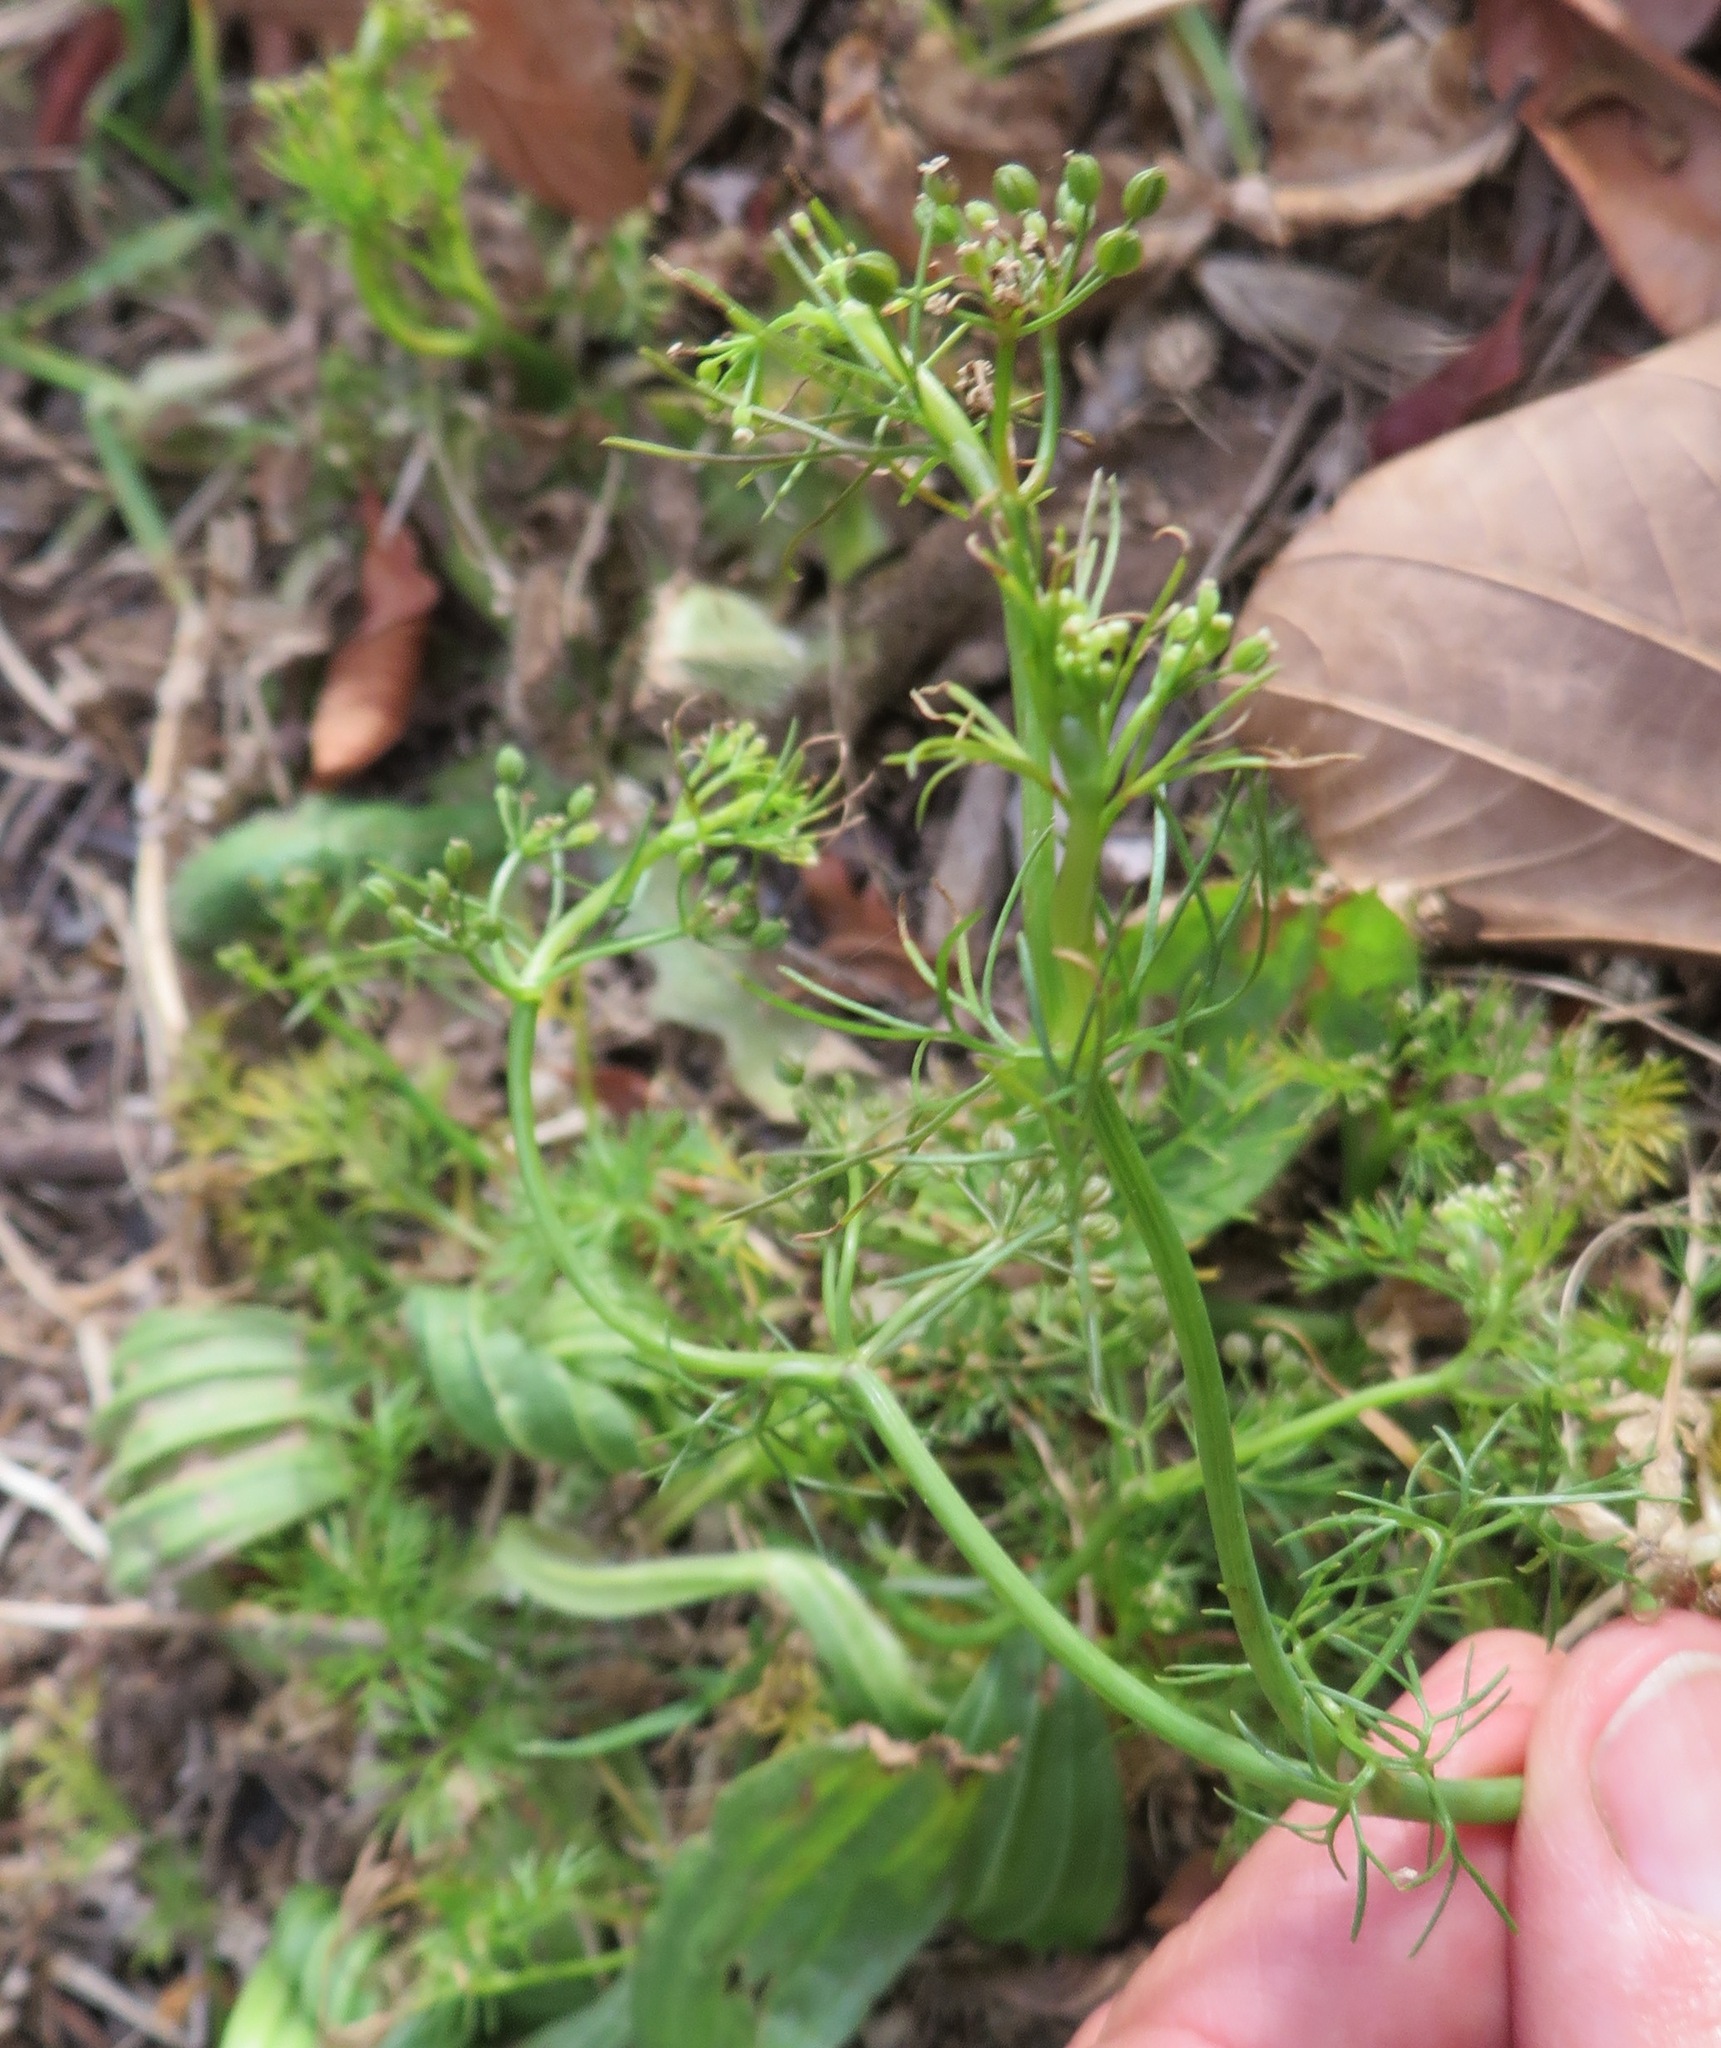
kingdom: Plantae
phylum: Tracheophyta
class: Magnoliopsida
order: Apiales
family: Apiaceae
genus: Cyclospermum
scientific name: Cyclospermum leptophyllum
